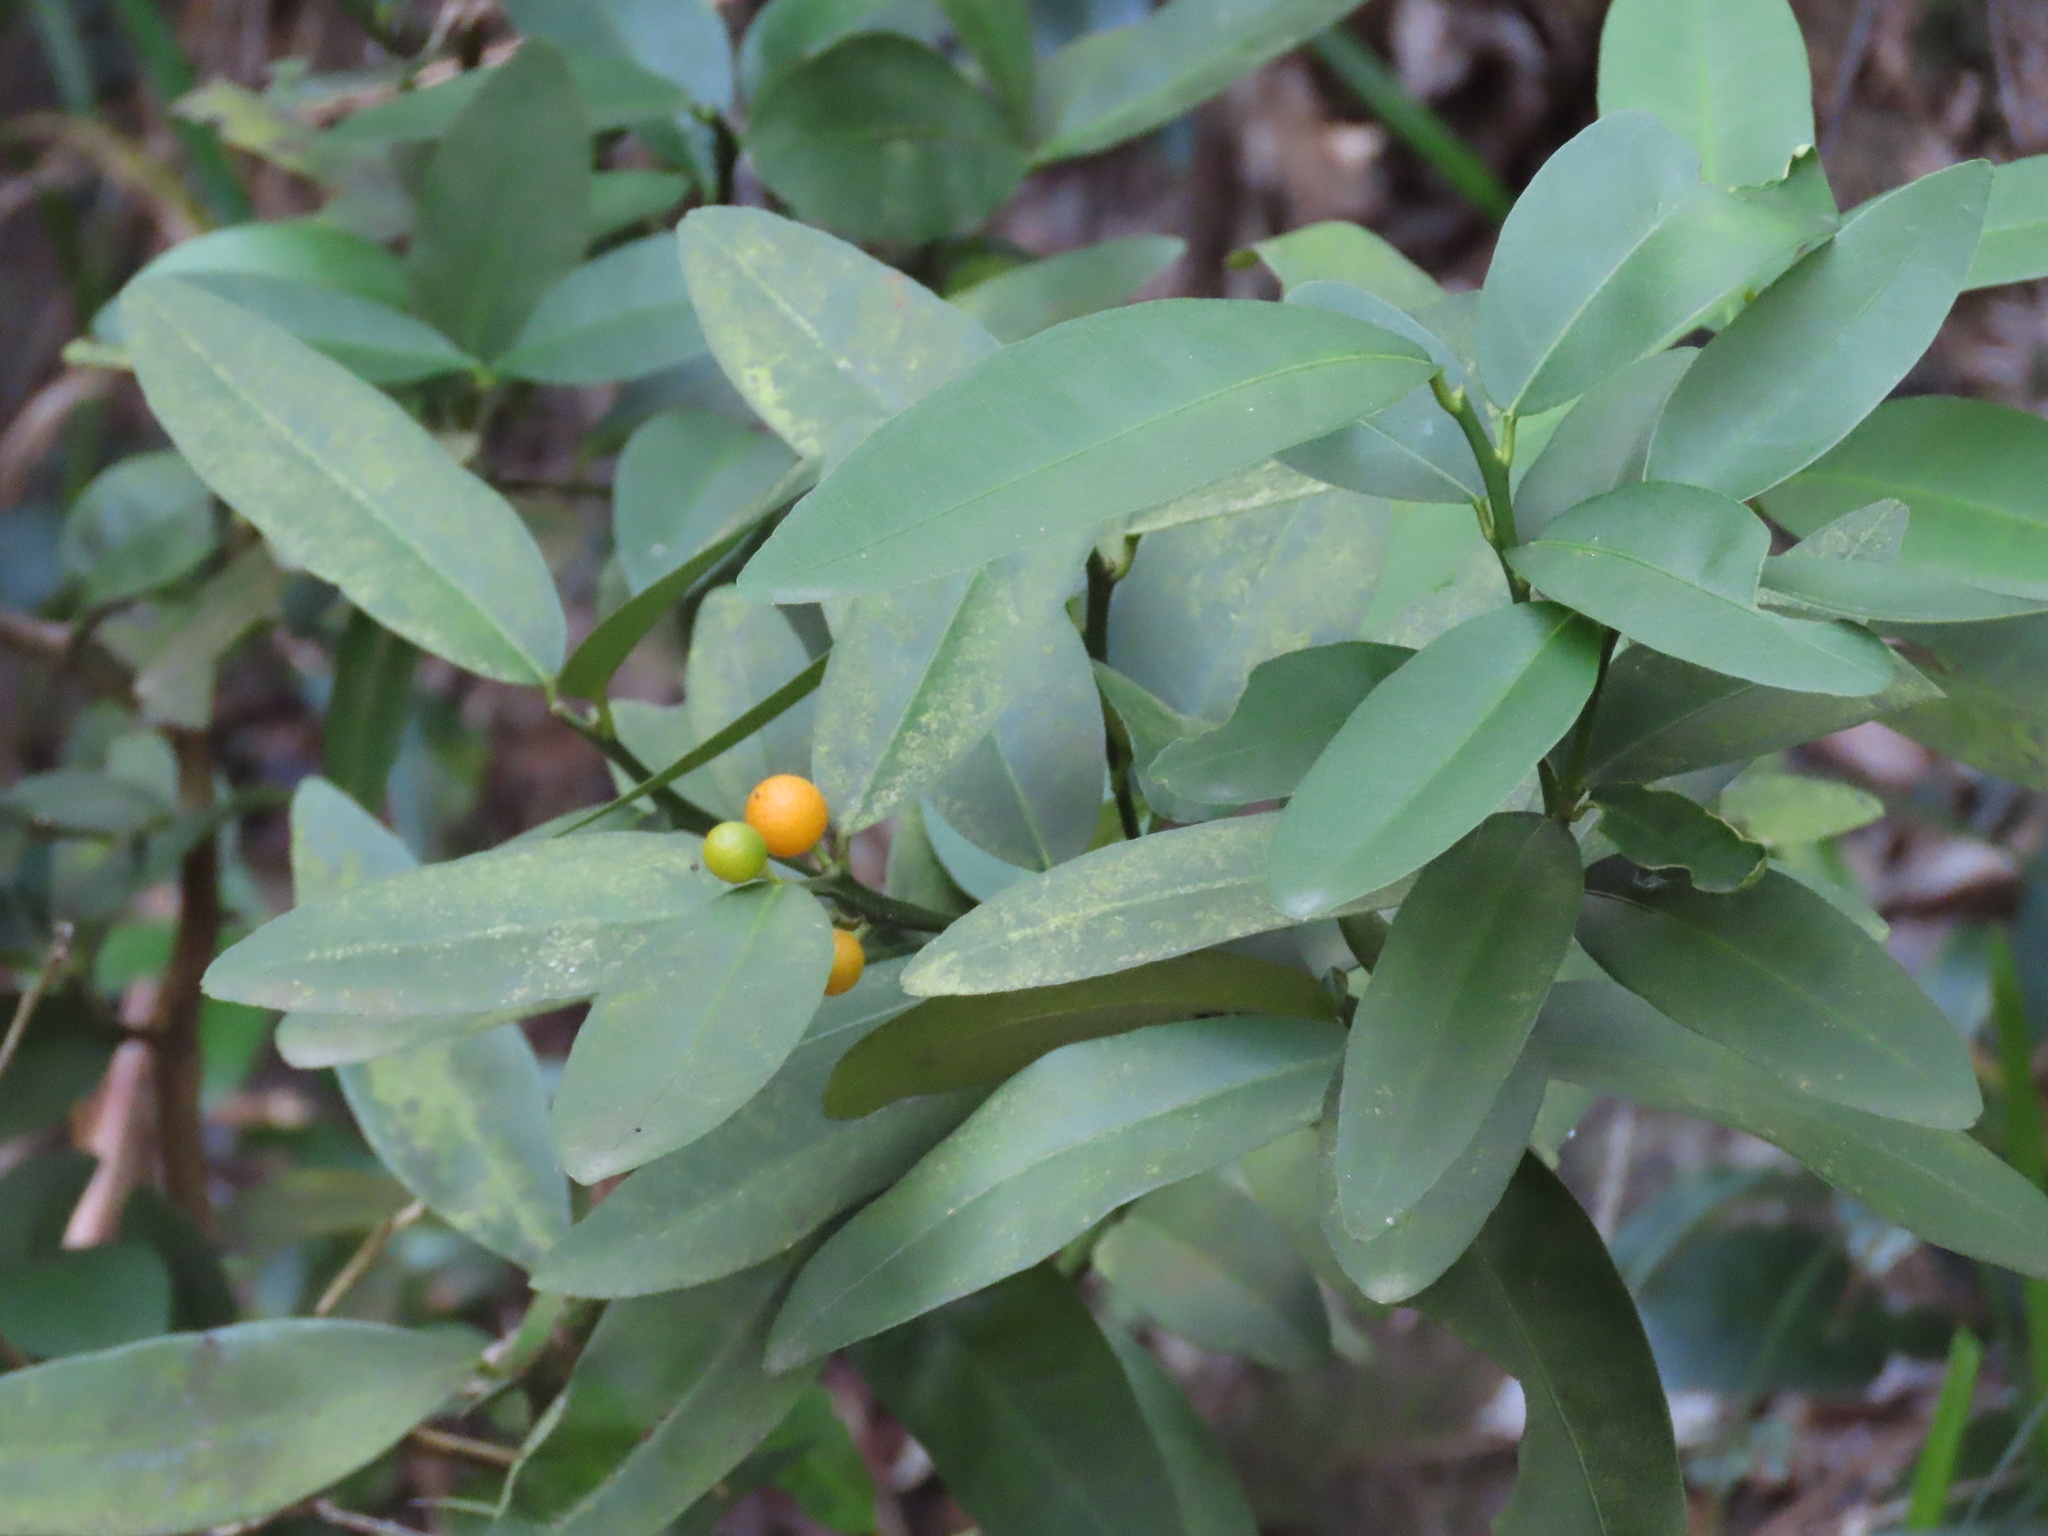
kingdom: Plantae
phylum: Tracheophyta
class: Magnoliopsida
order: Sapindales
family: Rutaceae
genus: Citrus
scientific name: Citrus japonica
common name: Kumquat
